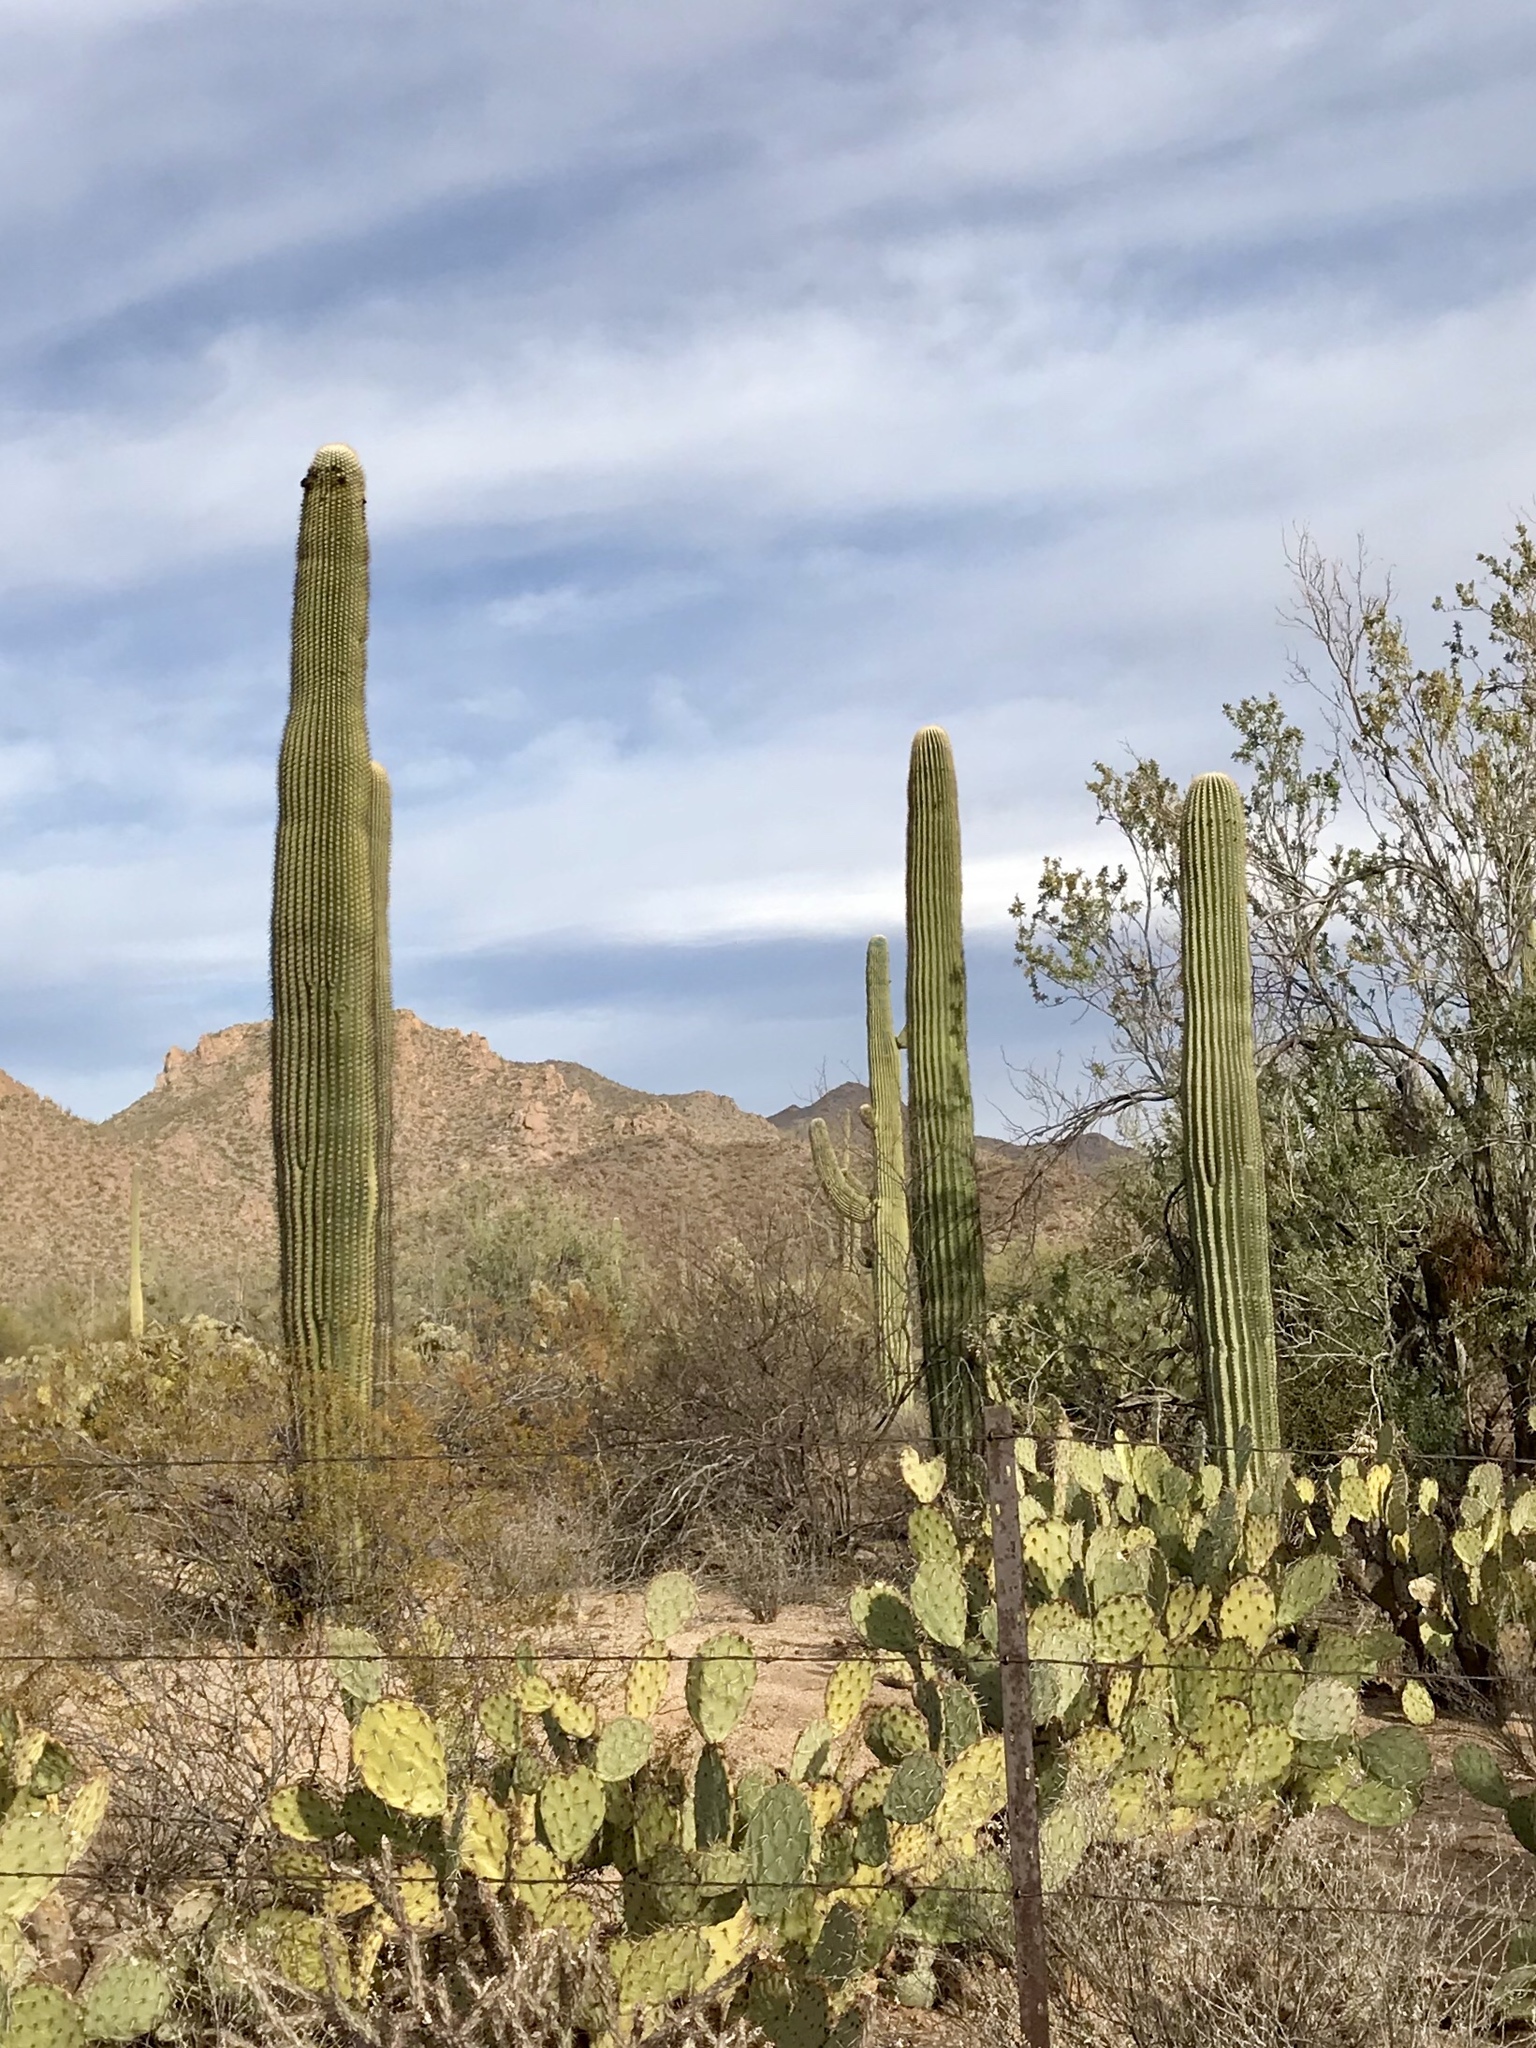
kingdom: Plantae
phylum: Tracheophyta
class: Magnoliopsida
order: Caryophyllales
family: Cactaceae
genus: Carnegiea
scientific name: Carnegiea gigantea
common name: Saguaro
